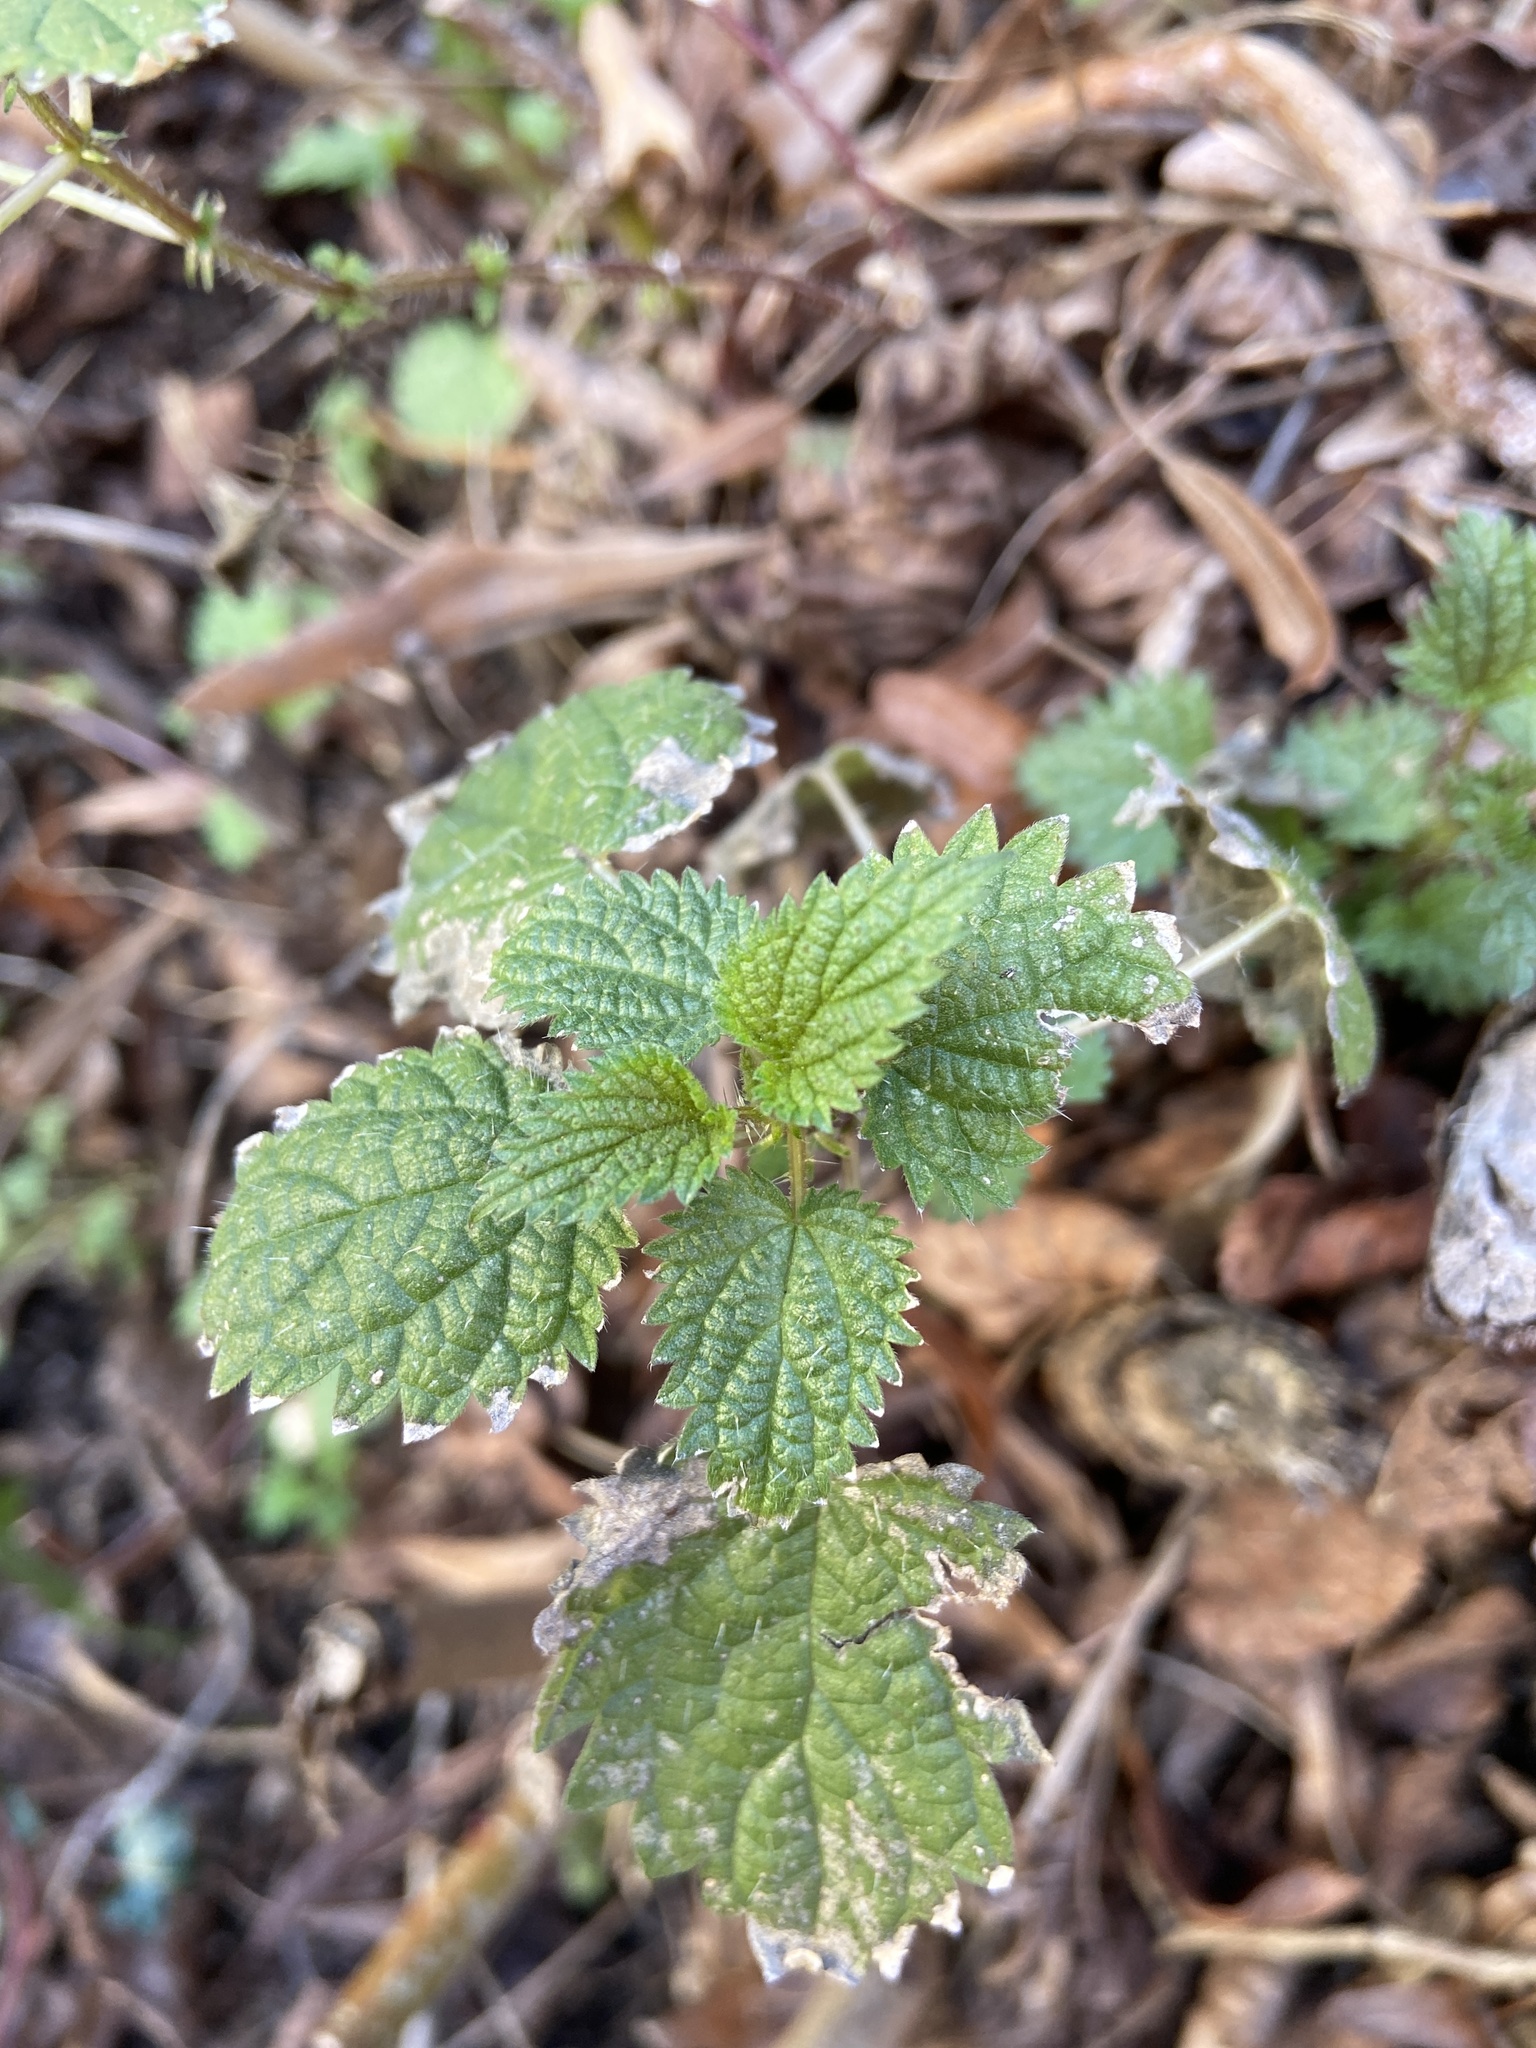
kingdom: Plantae
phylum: Tracheophyta
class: Magnoliopsida
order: Rosales
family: Urticaceae
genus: Urtica
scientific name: Urtica dioica
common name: Common nettle
